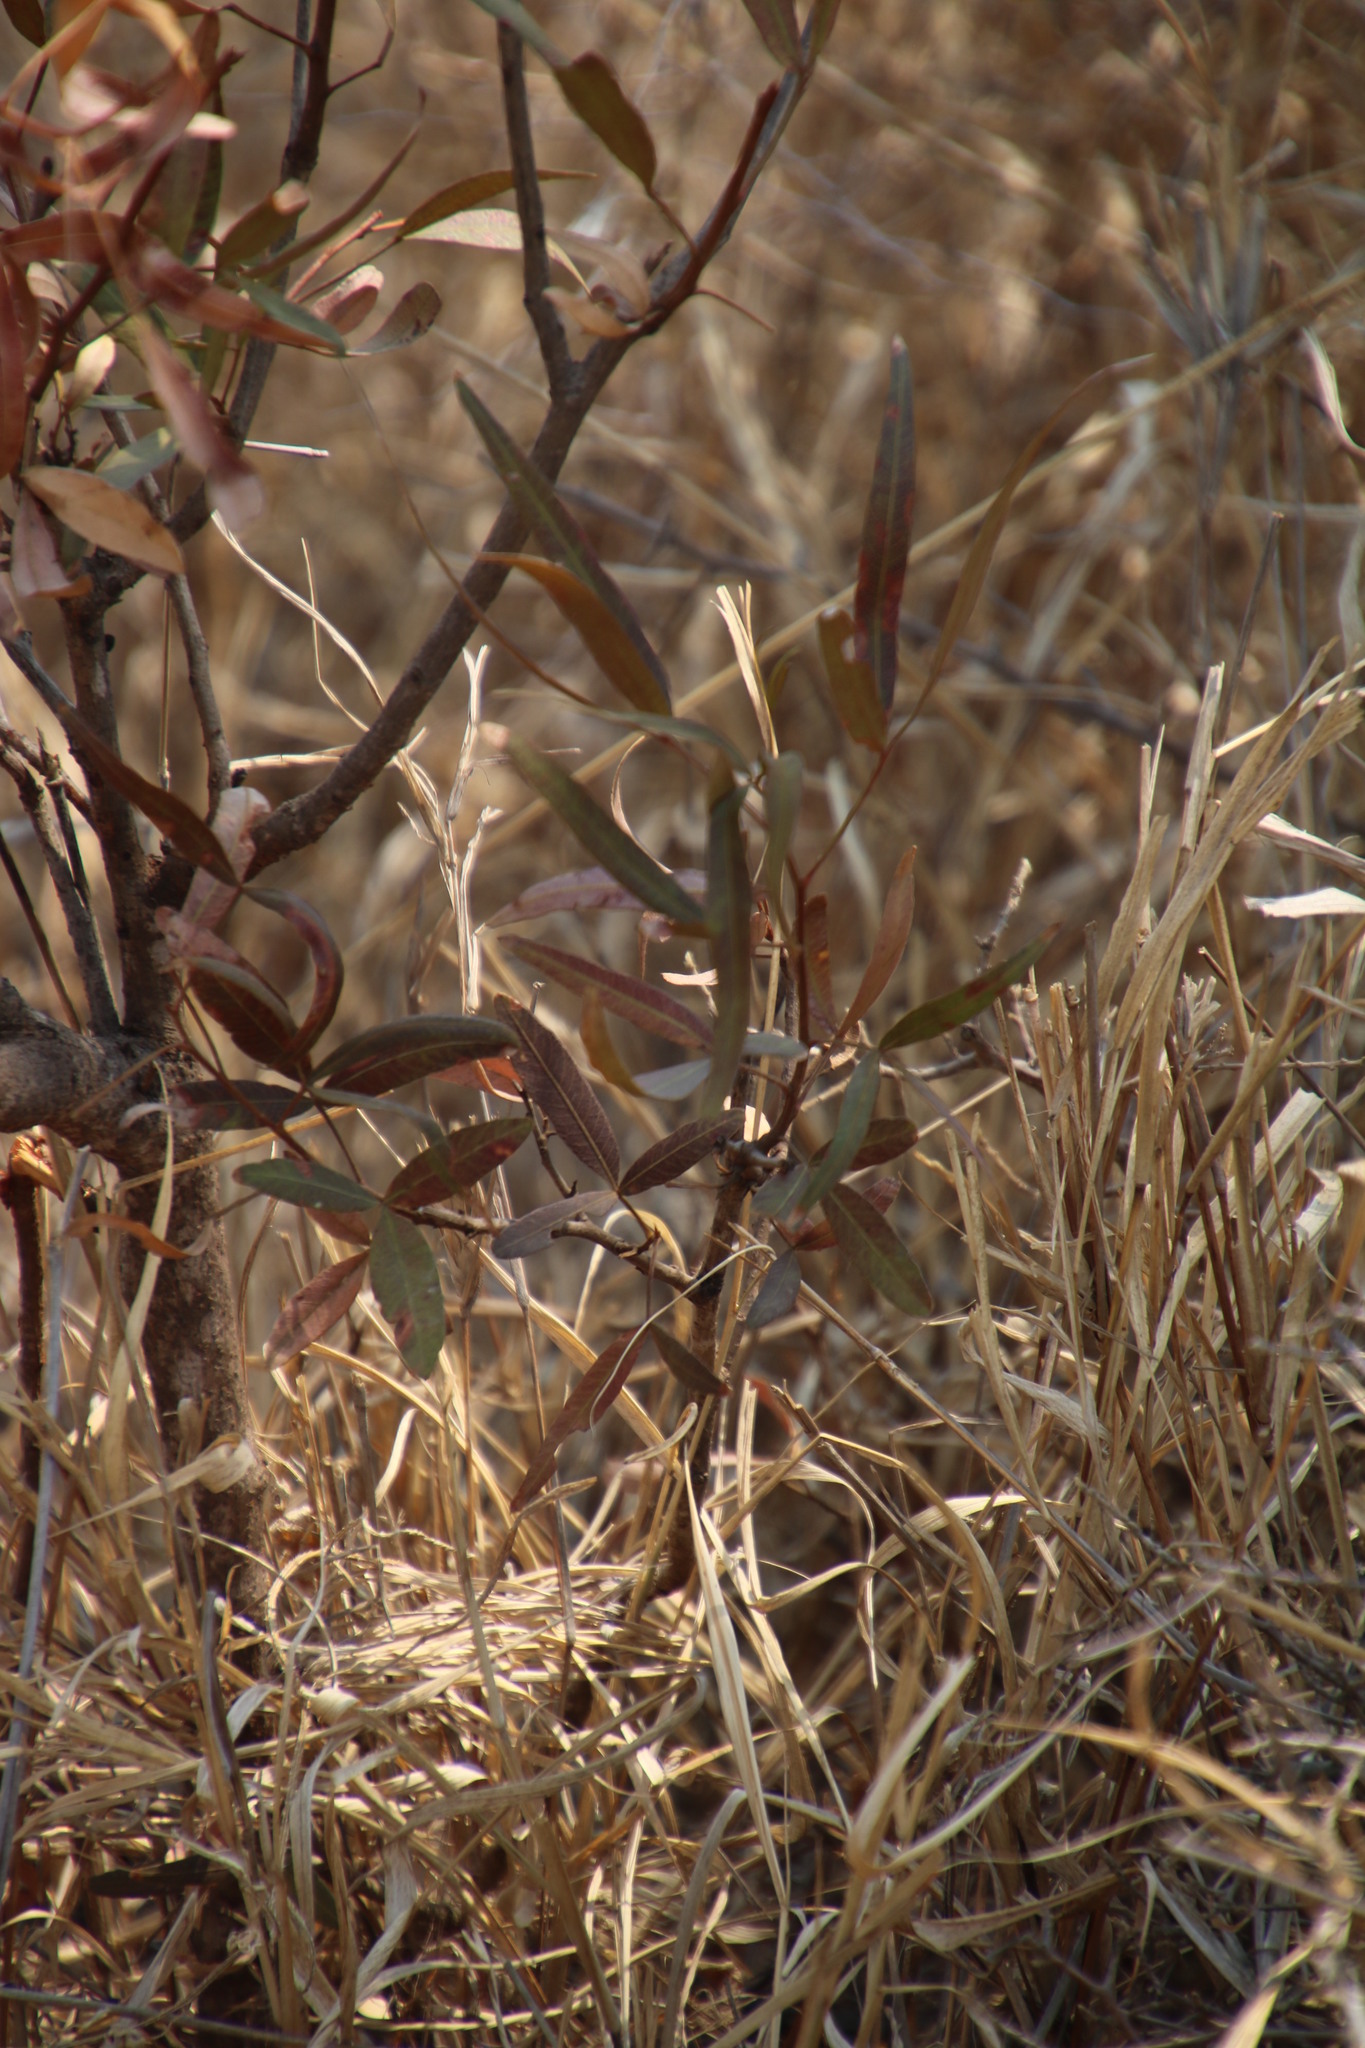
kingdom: Plantae
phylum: Tracheophyta
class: Magnoliopsida
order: Sapindales
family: Anacardiaceae
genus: Searsia
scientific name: Searsia lancea
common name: Cashew
